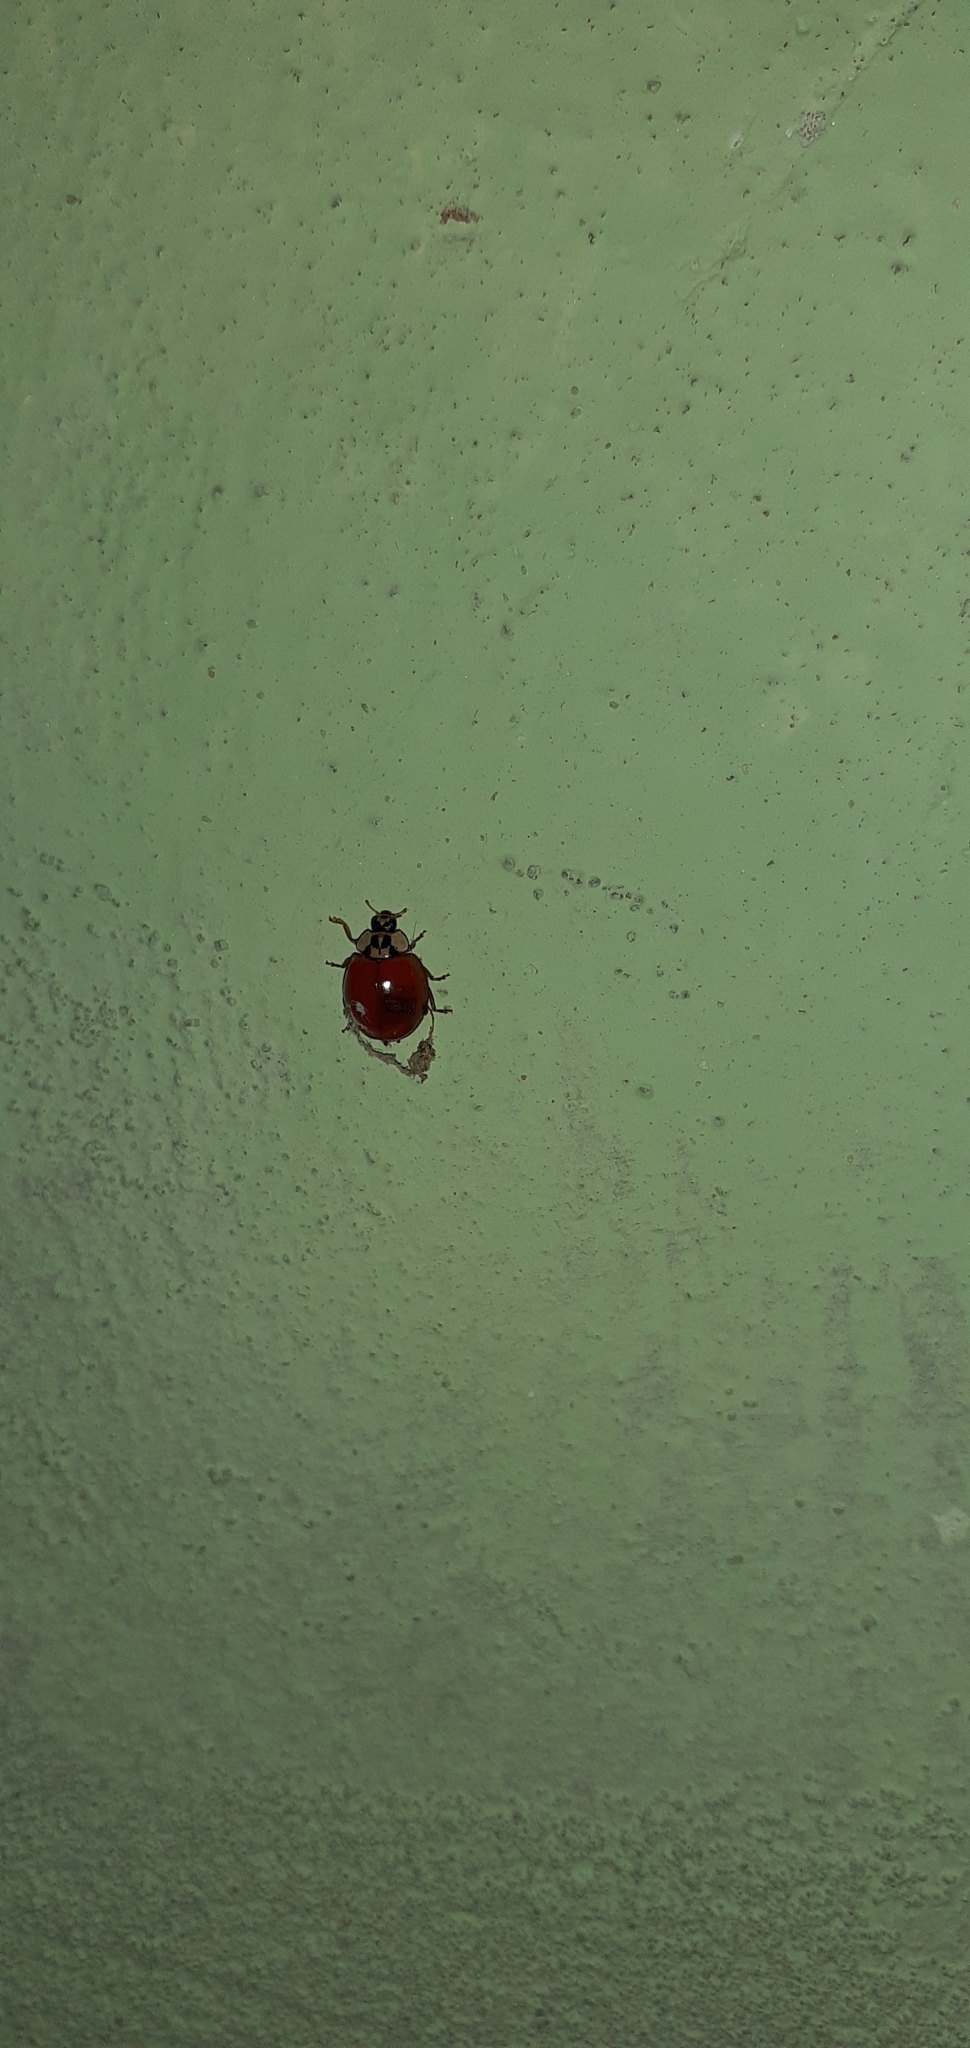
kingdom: Animalia
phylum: Arthropoda
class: Insecta
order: Coleoptera
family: Coccinellidae
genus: Harmonia
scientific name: Harmonia axyridis
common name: Harlequin ladybird
